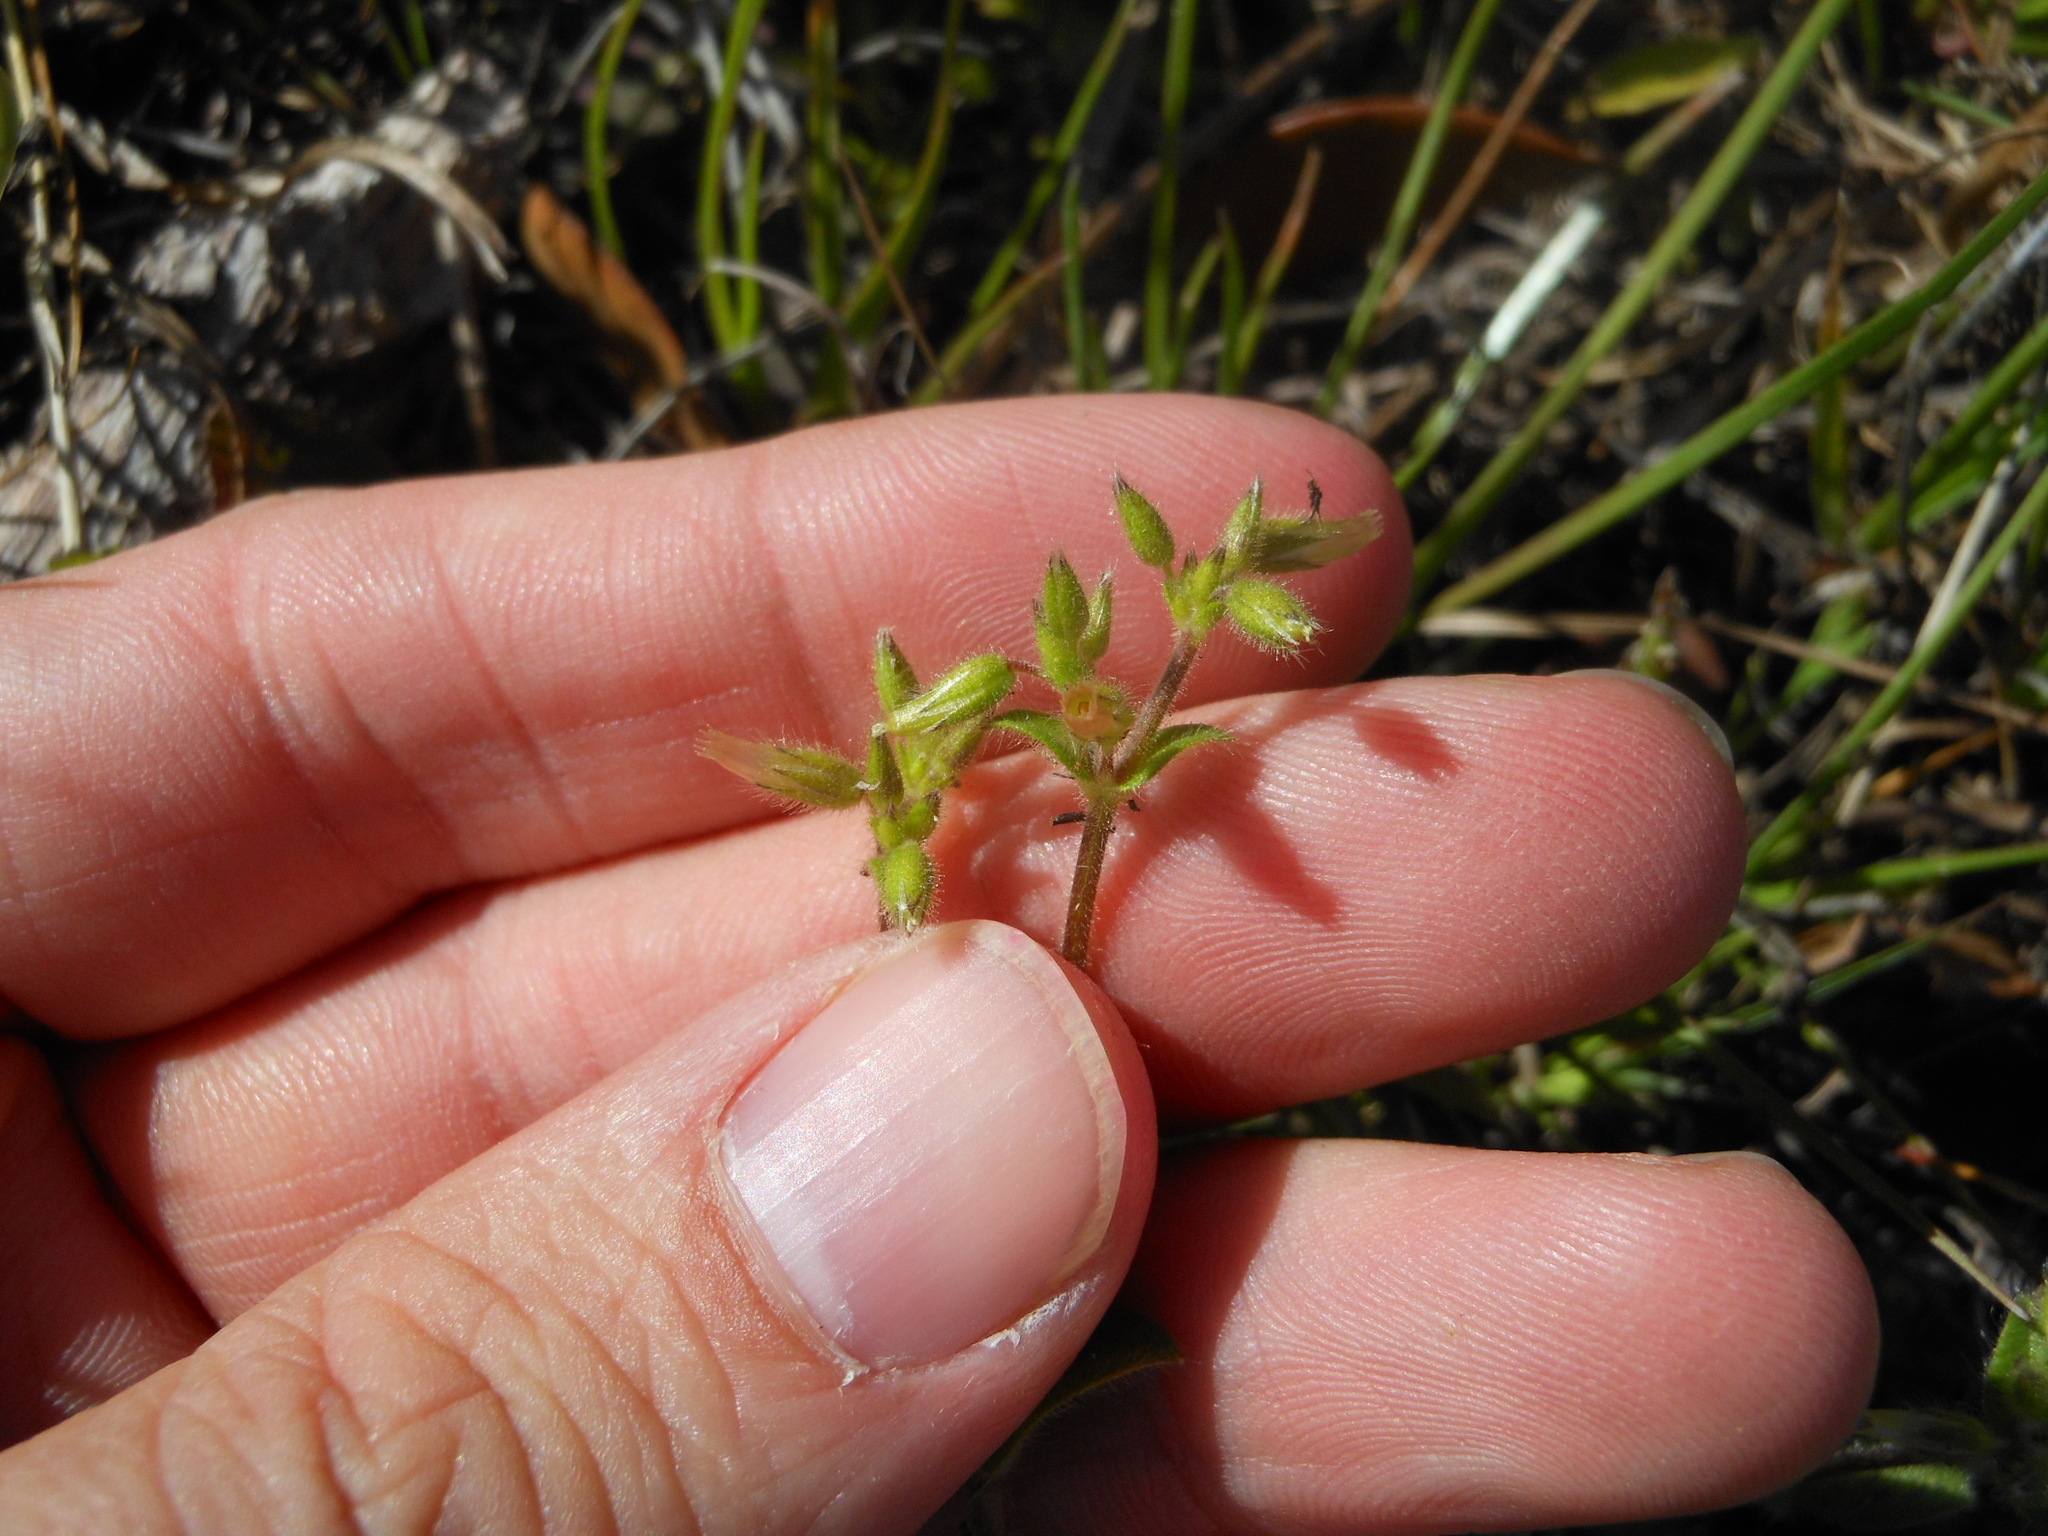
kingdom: Plantae
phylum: Tracheophyta
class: Magnoliopsida
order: Caryophyllales
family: Caryophyllaceae
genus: Cerastium
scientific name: Cerastium glomeratum
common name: Sticky chickweed
